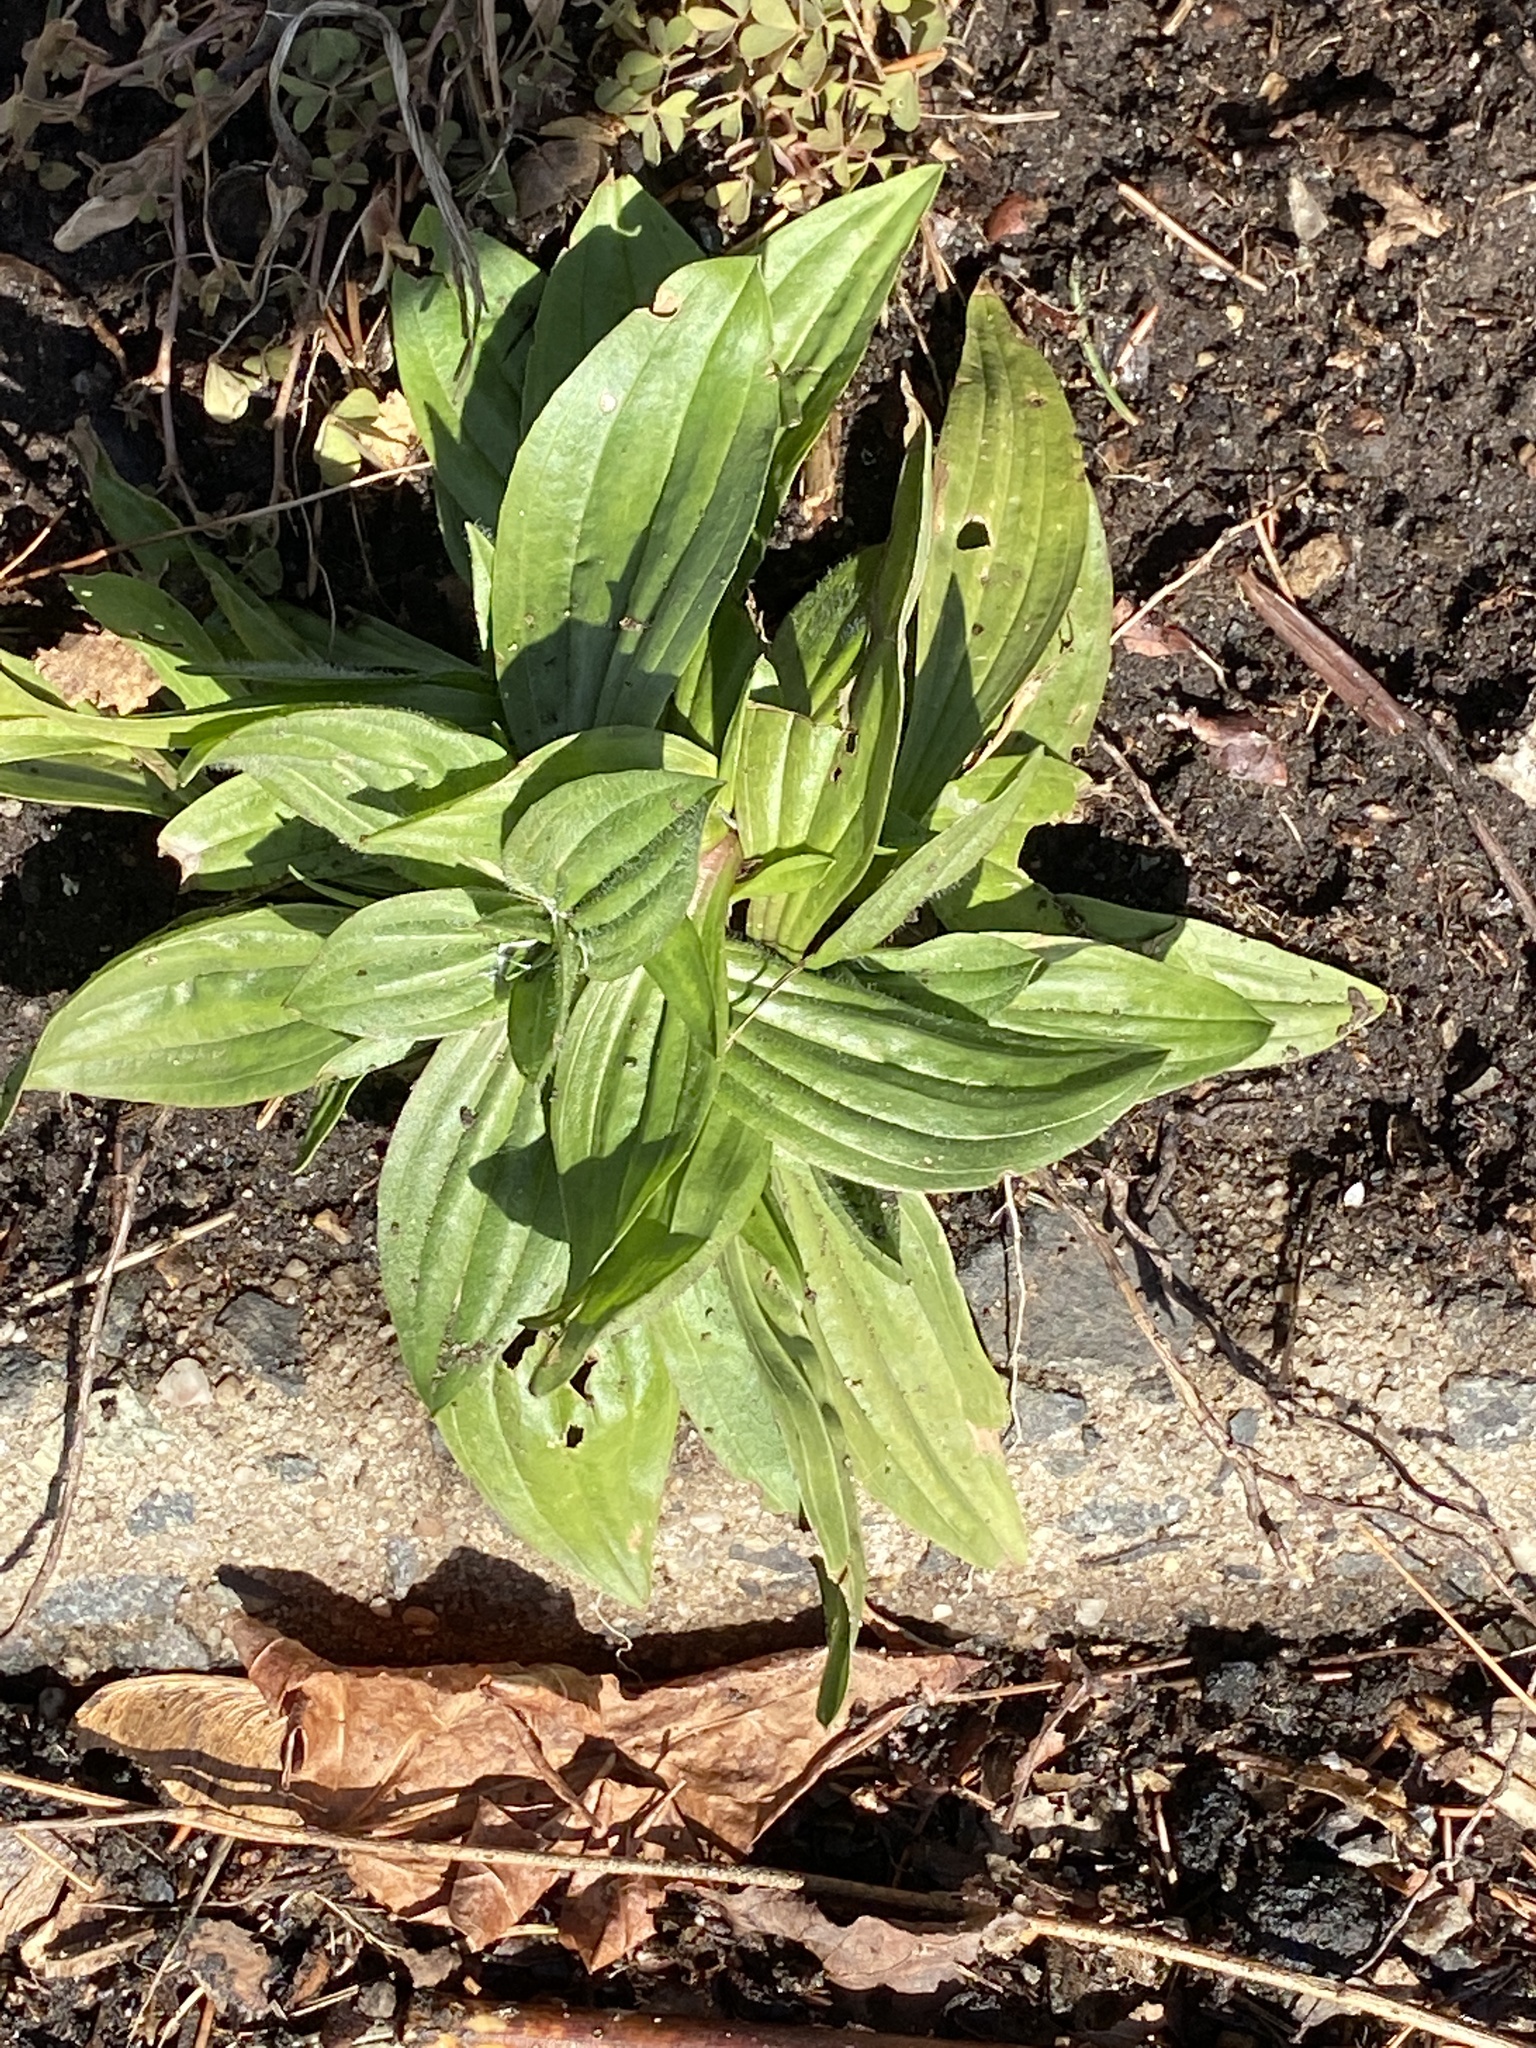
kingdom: Plantae
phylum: Tracheophyta
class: Magnoliopsida
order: Lamiales
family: Plantaginaceae
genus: Plantago
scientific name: Plantago lanceolata
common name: Ribwort plantain
